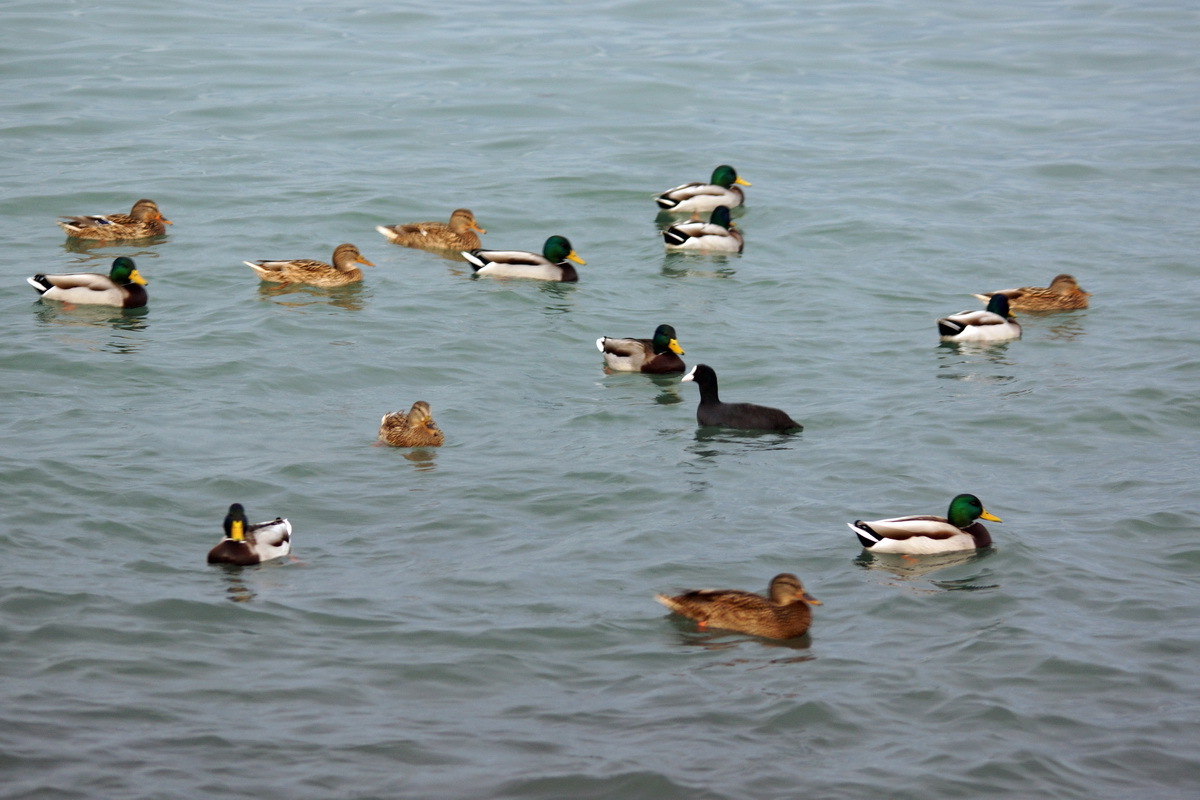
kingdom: Animalia
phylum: Chordata
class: Aves
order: Anseriformes
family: Anatidae
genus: Anas
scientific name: Anas platyrhynchos
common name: Mallard
